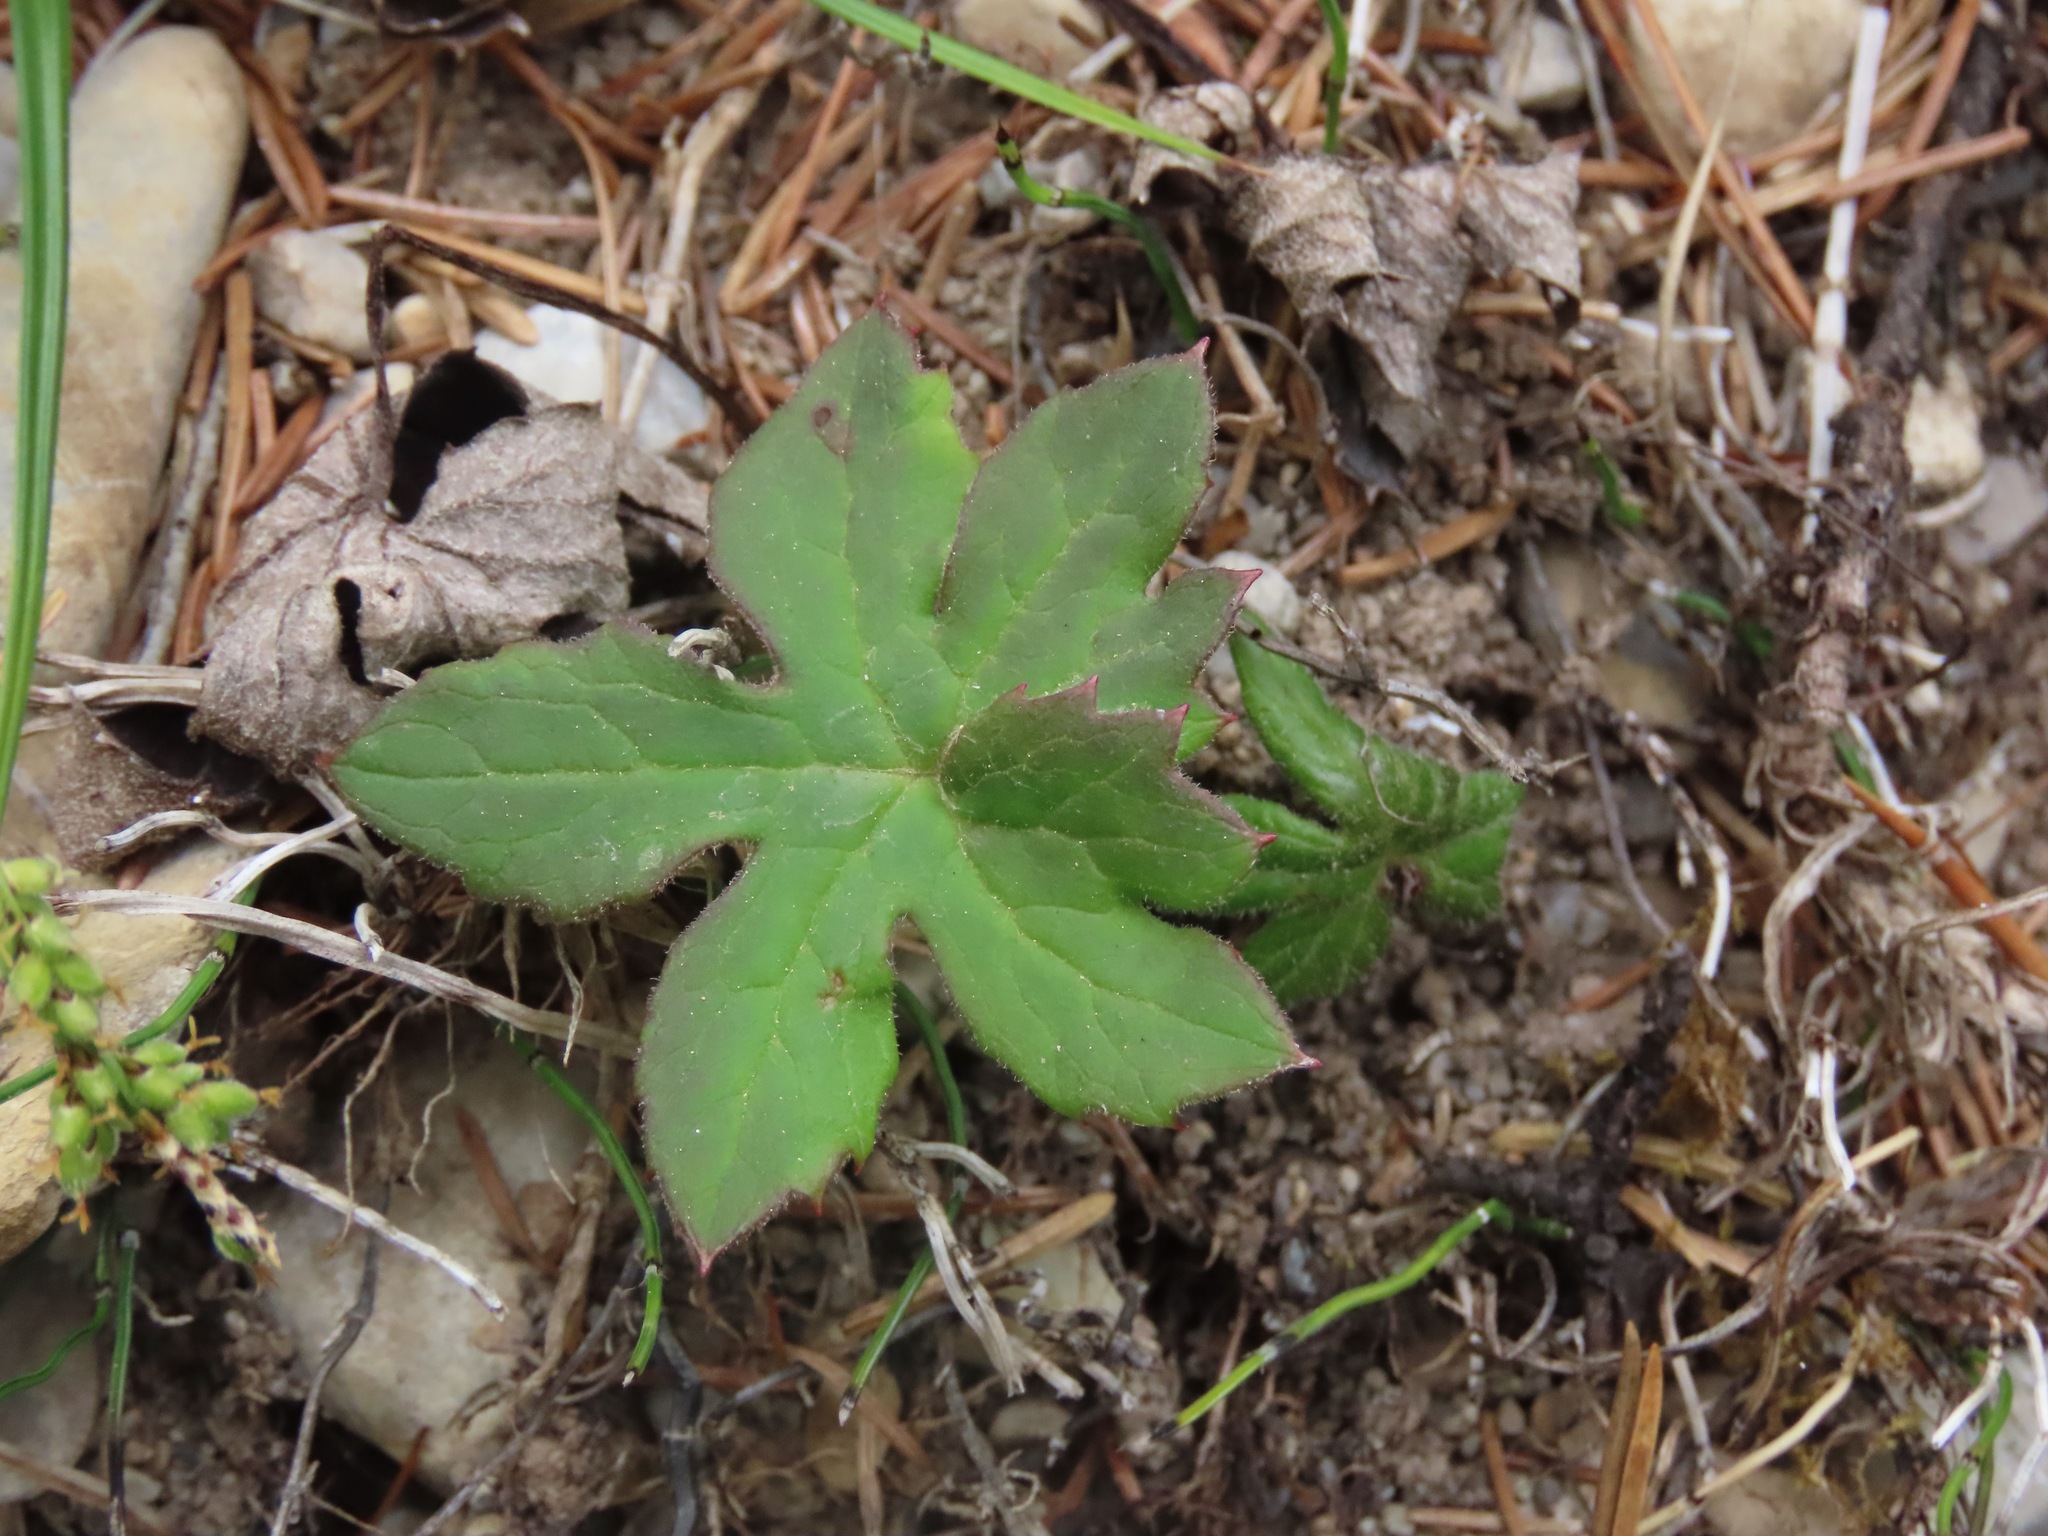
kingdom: Plantae
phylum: Tracheophyta
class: Magnoliopsida
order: Asterales
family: Asteraceae
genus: Petasites
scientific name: Petasites frigidus
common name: Arctic butterbur
